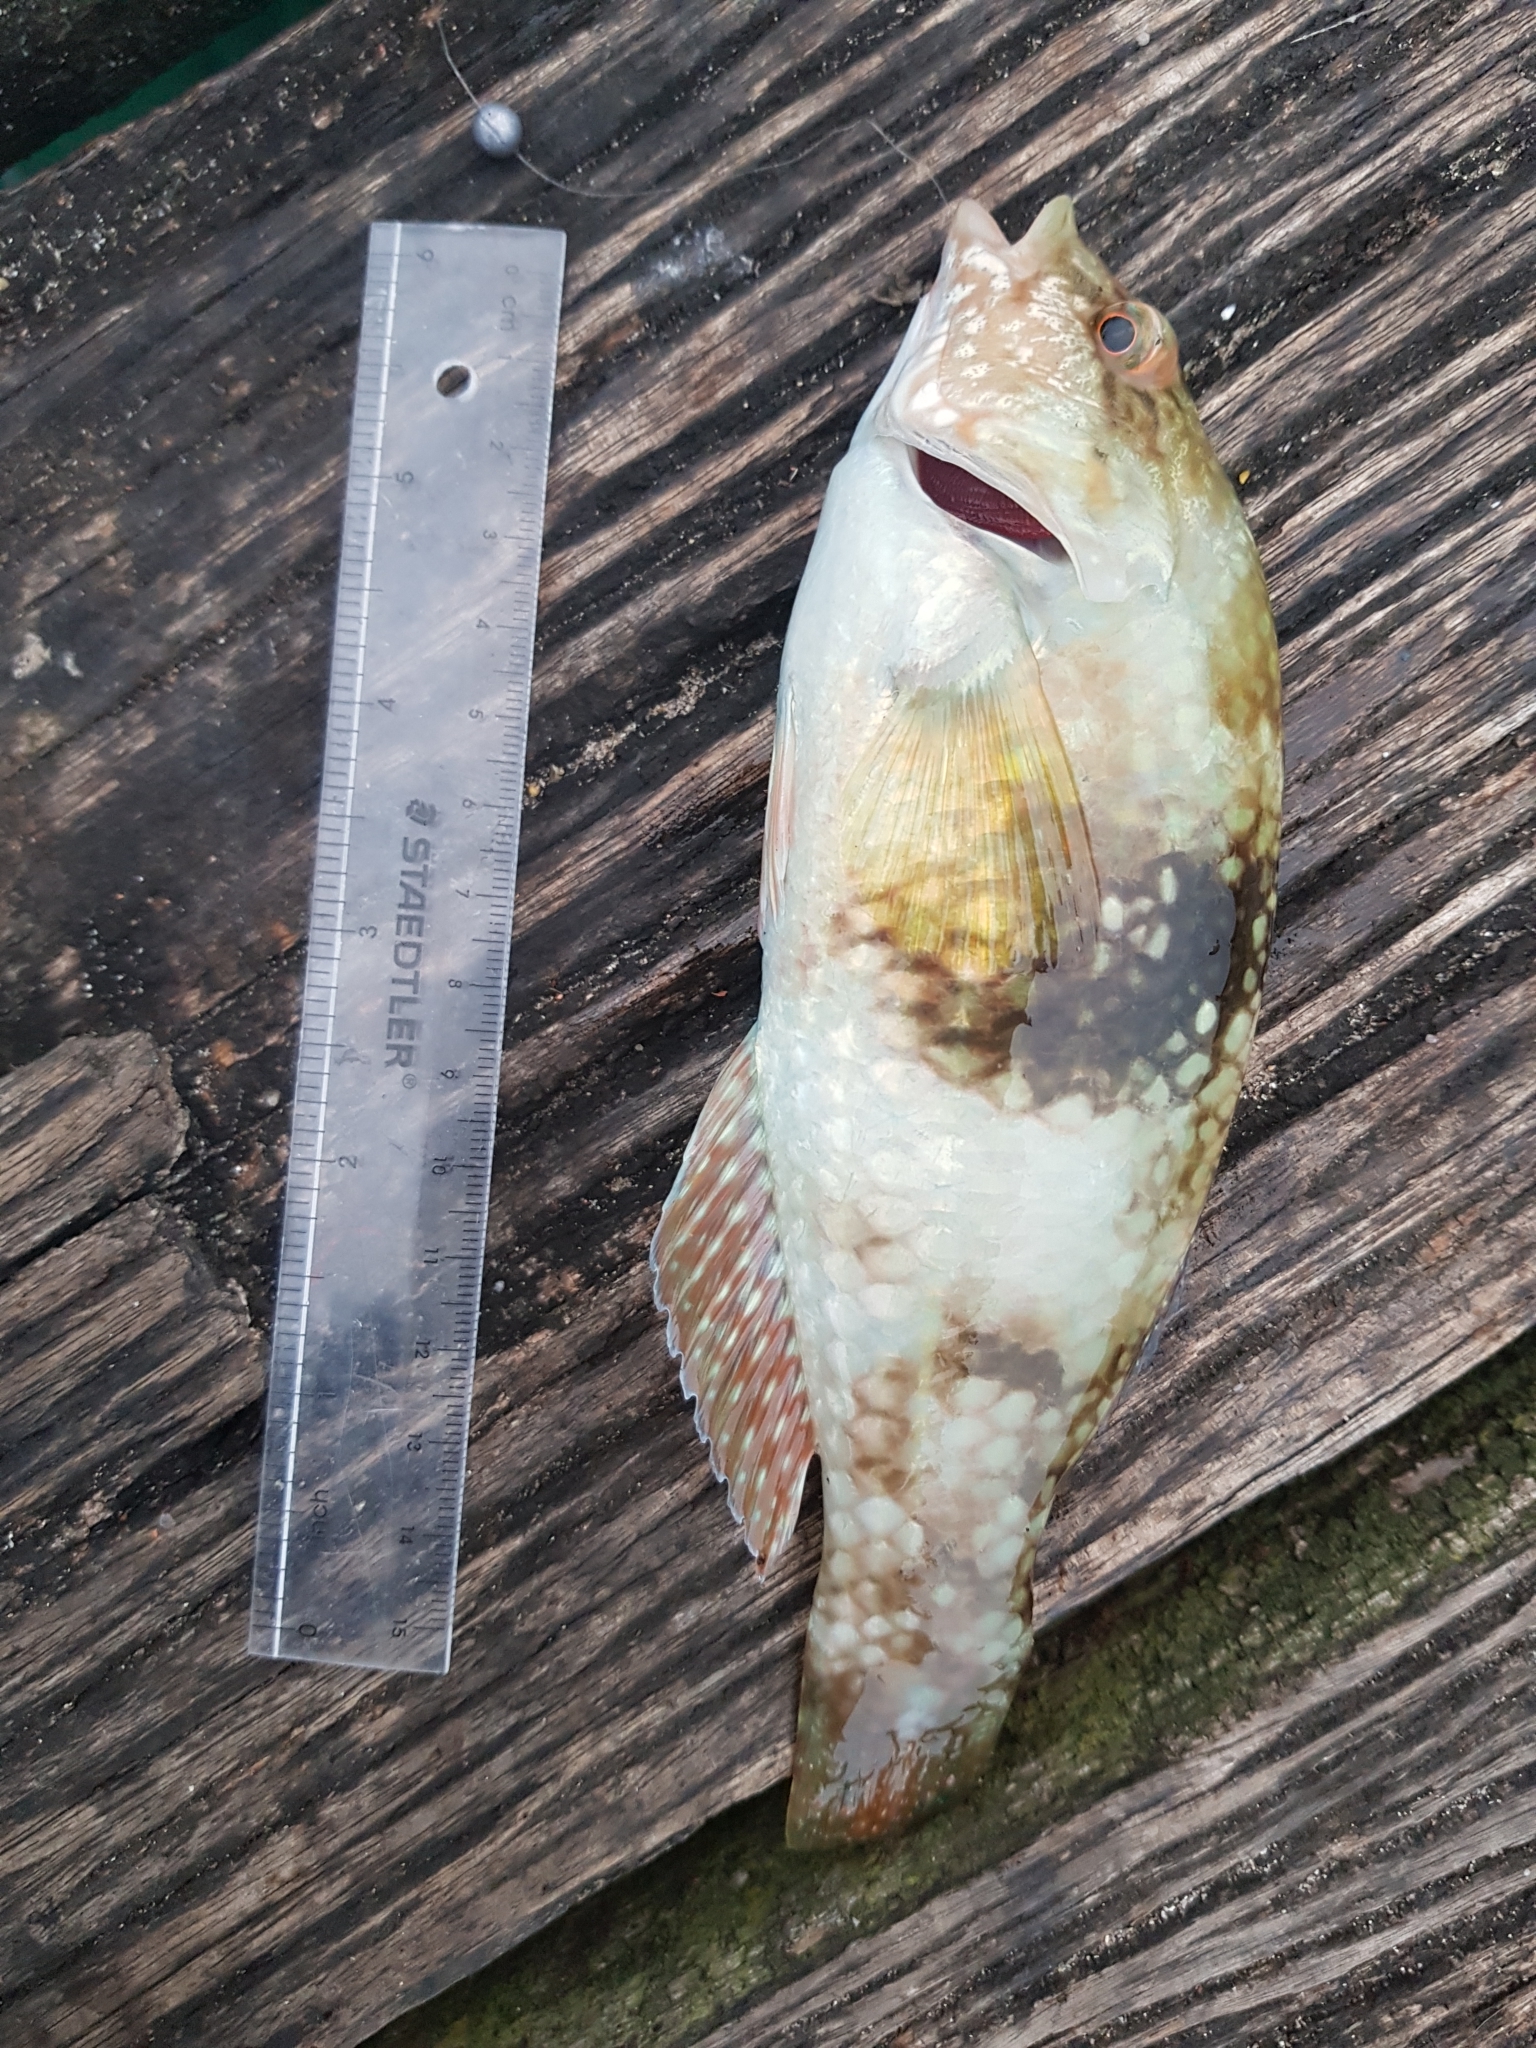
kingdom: Animalia
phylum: Chordata
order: Perciformes
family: Labridae
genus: Notolabrus
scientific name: Notolabrus tetricus
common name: Blue-throated parrotfish
